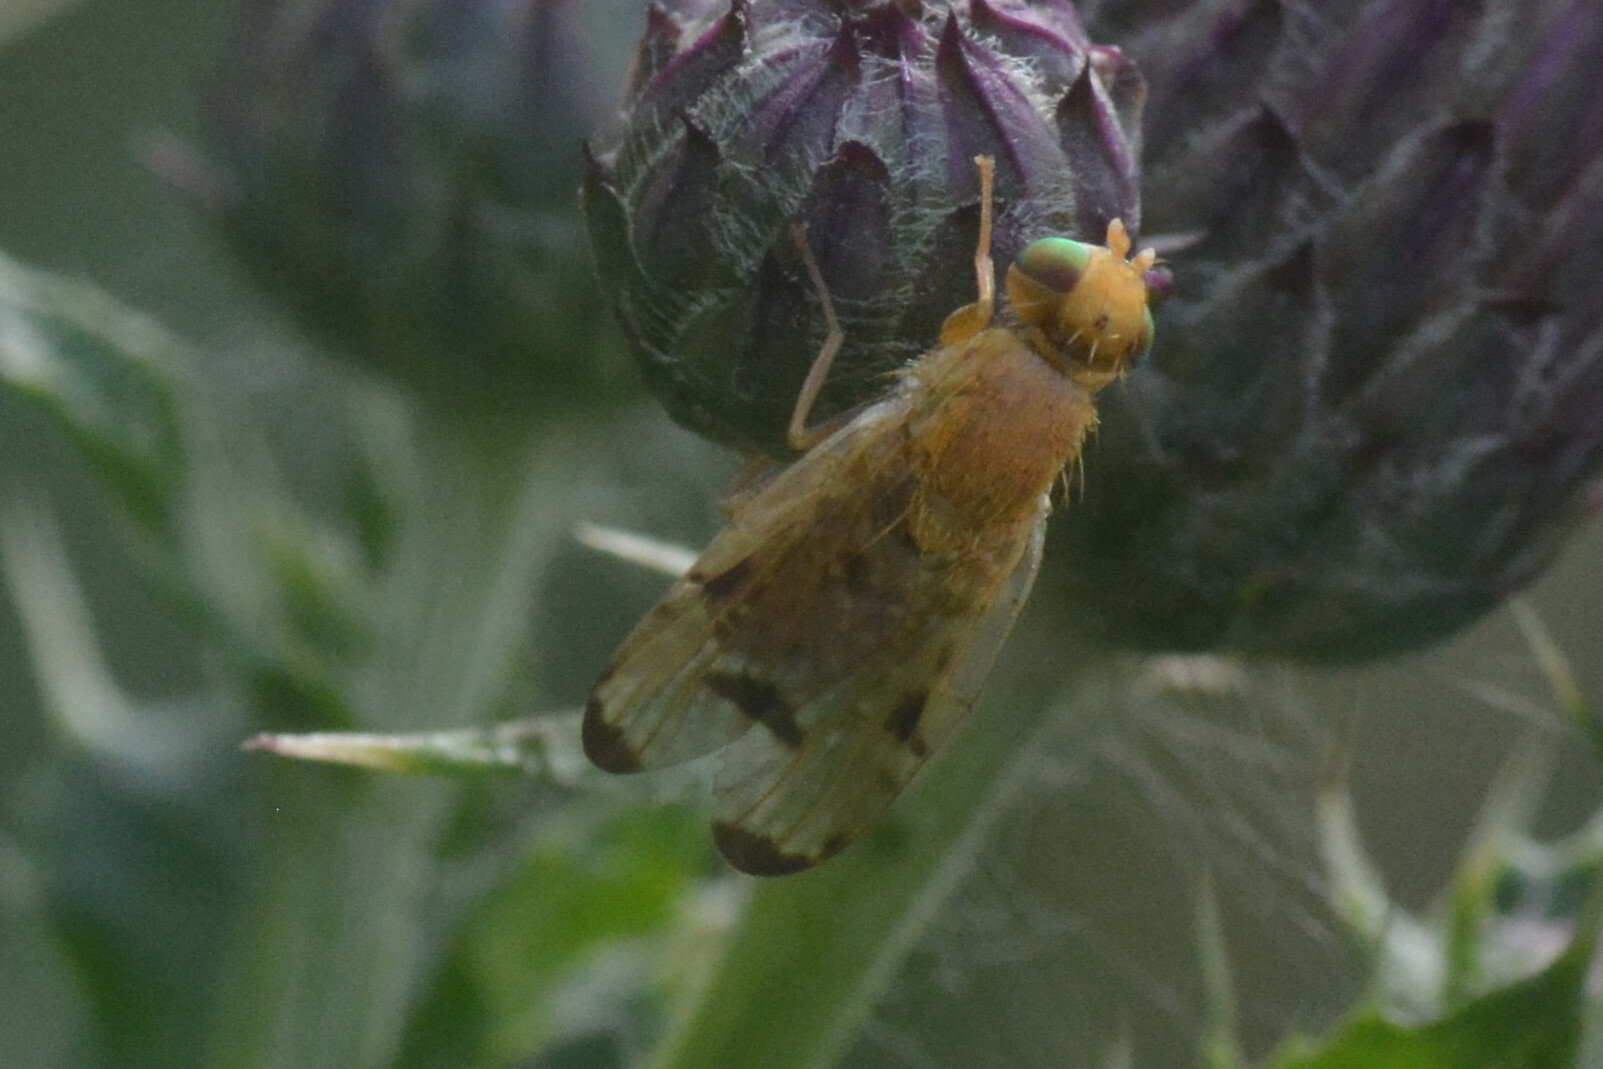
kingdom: Animalia
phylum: Arthropoda
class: Insecta
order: Diptera
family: Tephritidae
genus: Xyphosia
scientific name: Xyphosia miliaria
